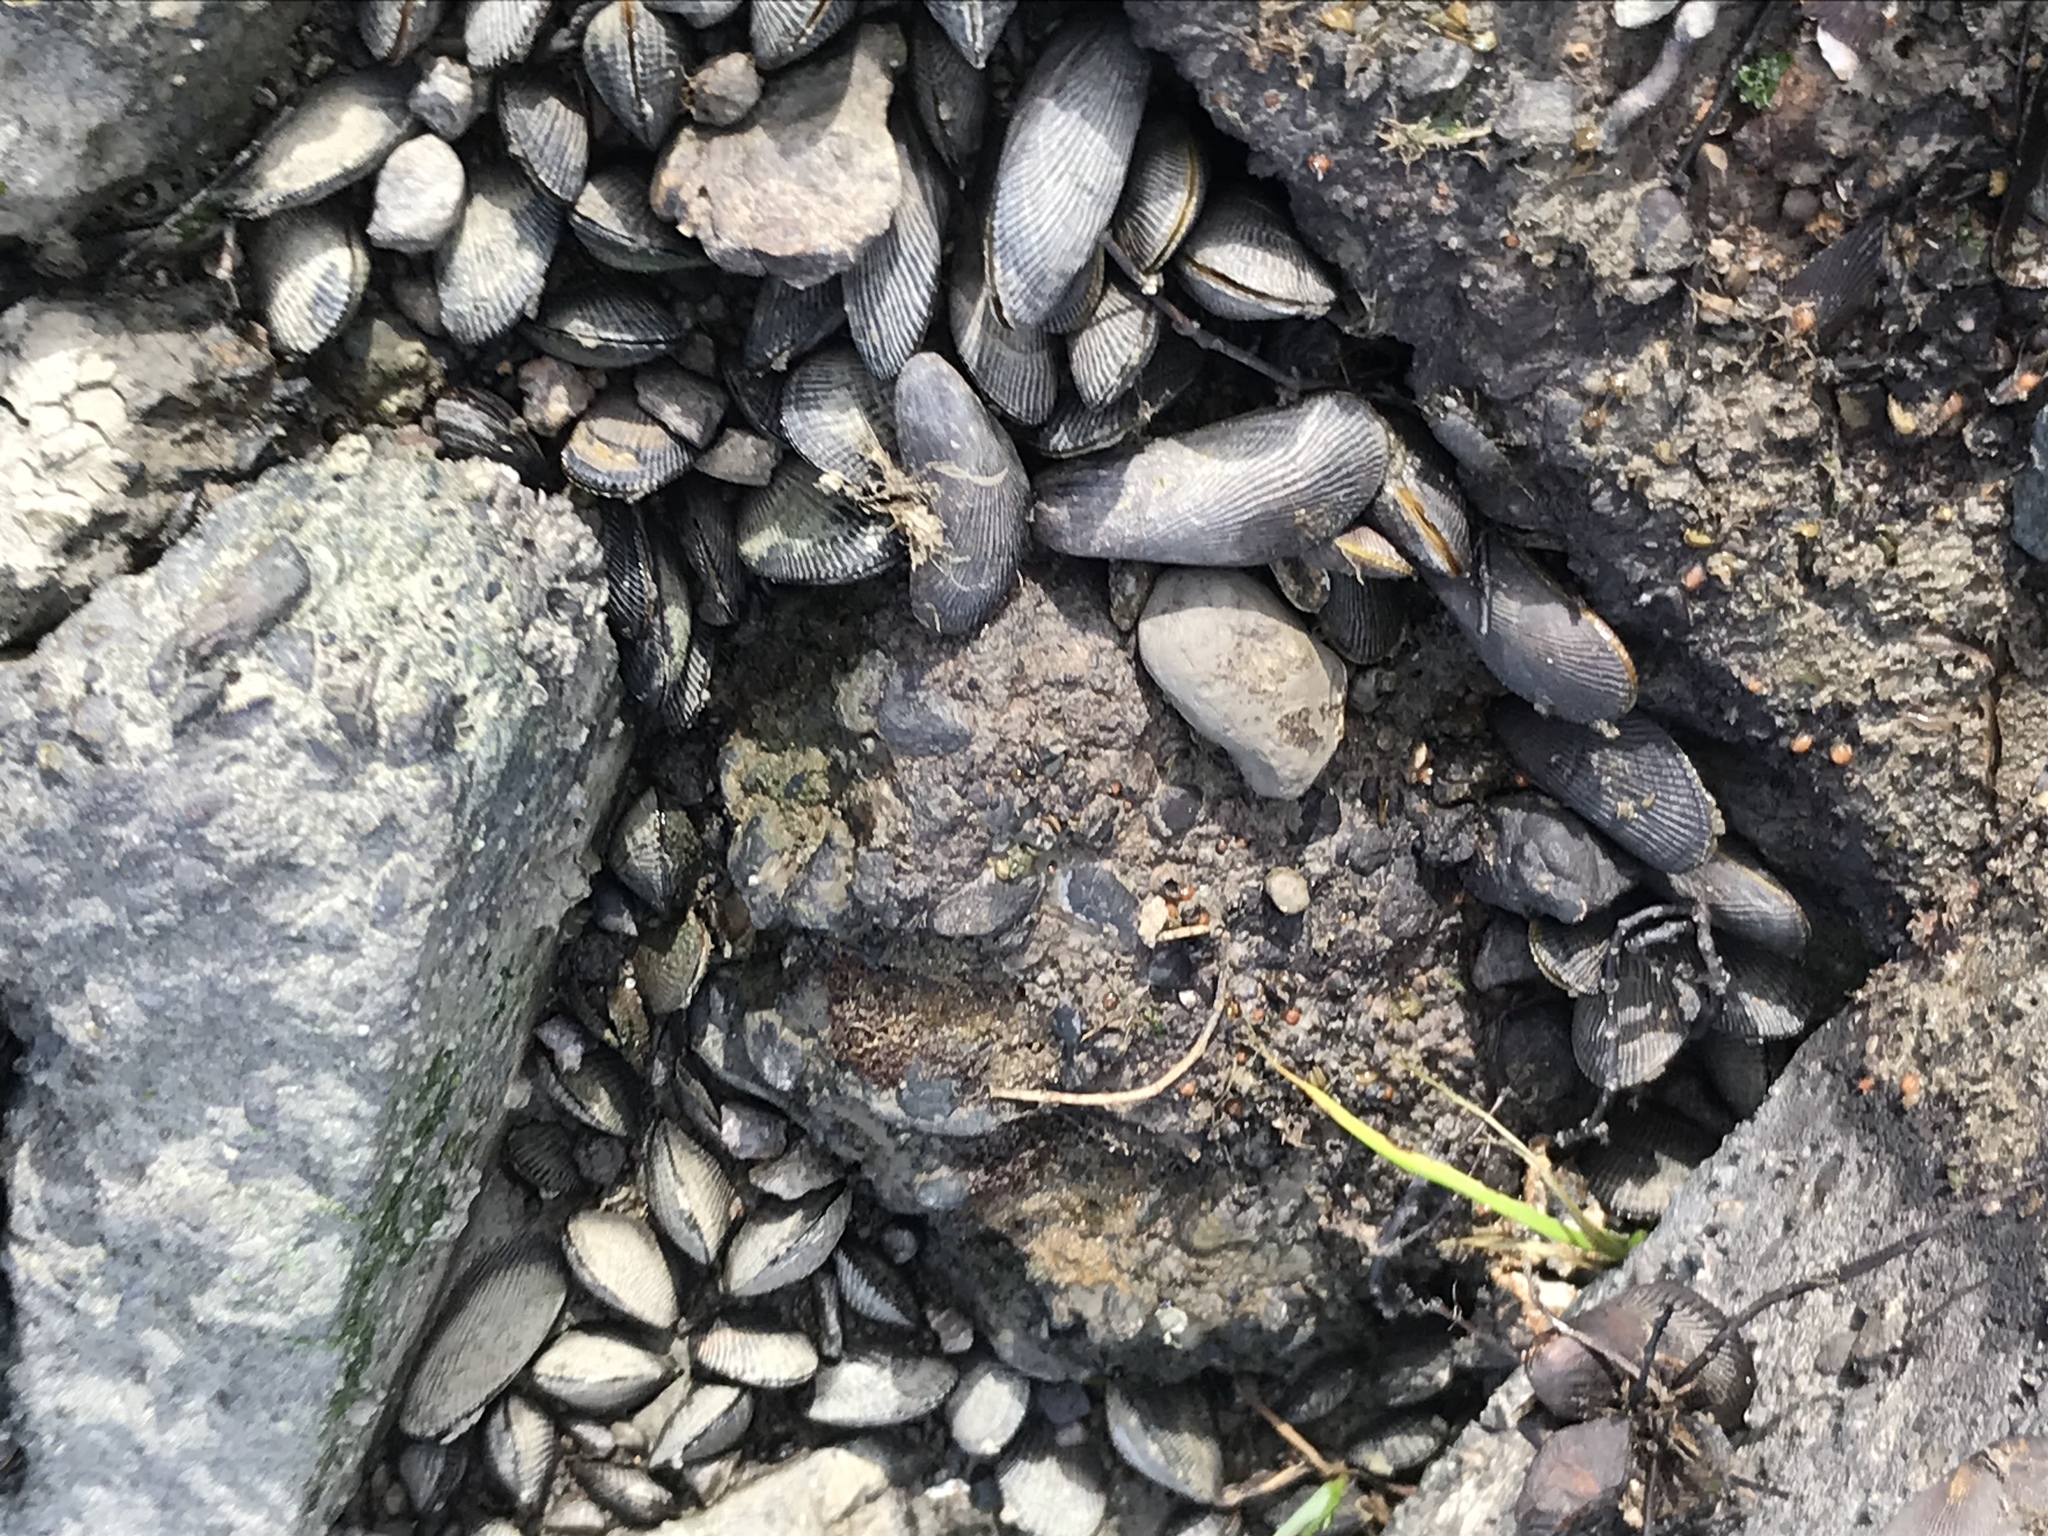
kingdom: Animalia
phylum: Mollusca
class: Bivalvia
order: Mytilida
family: Mytilidae
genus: Geukensia
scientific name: Geukensia demissa
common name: Ribbed mussel
